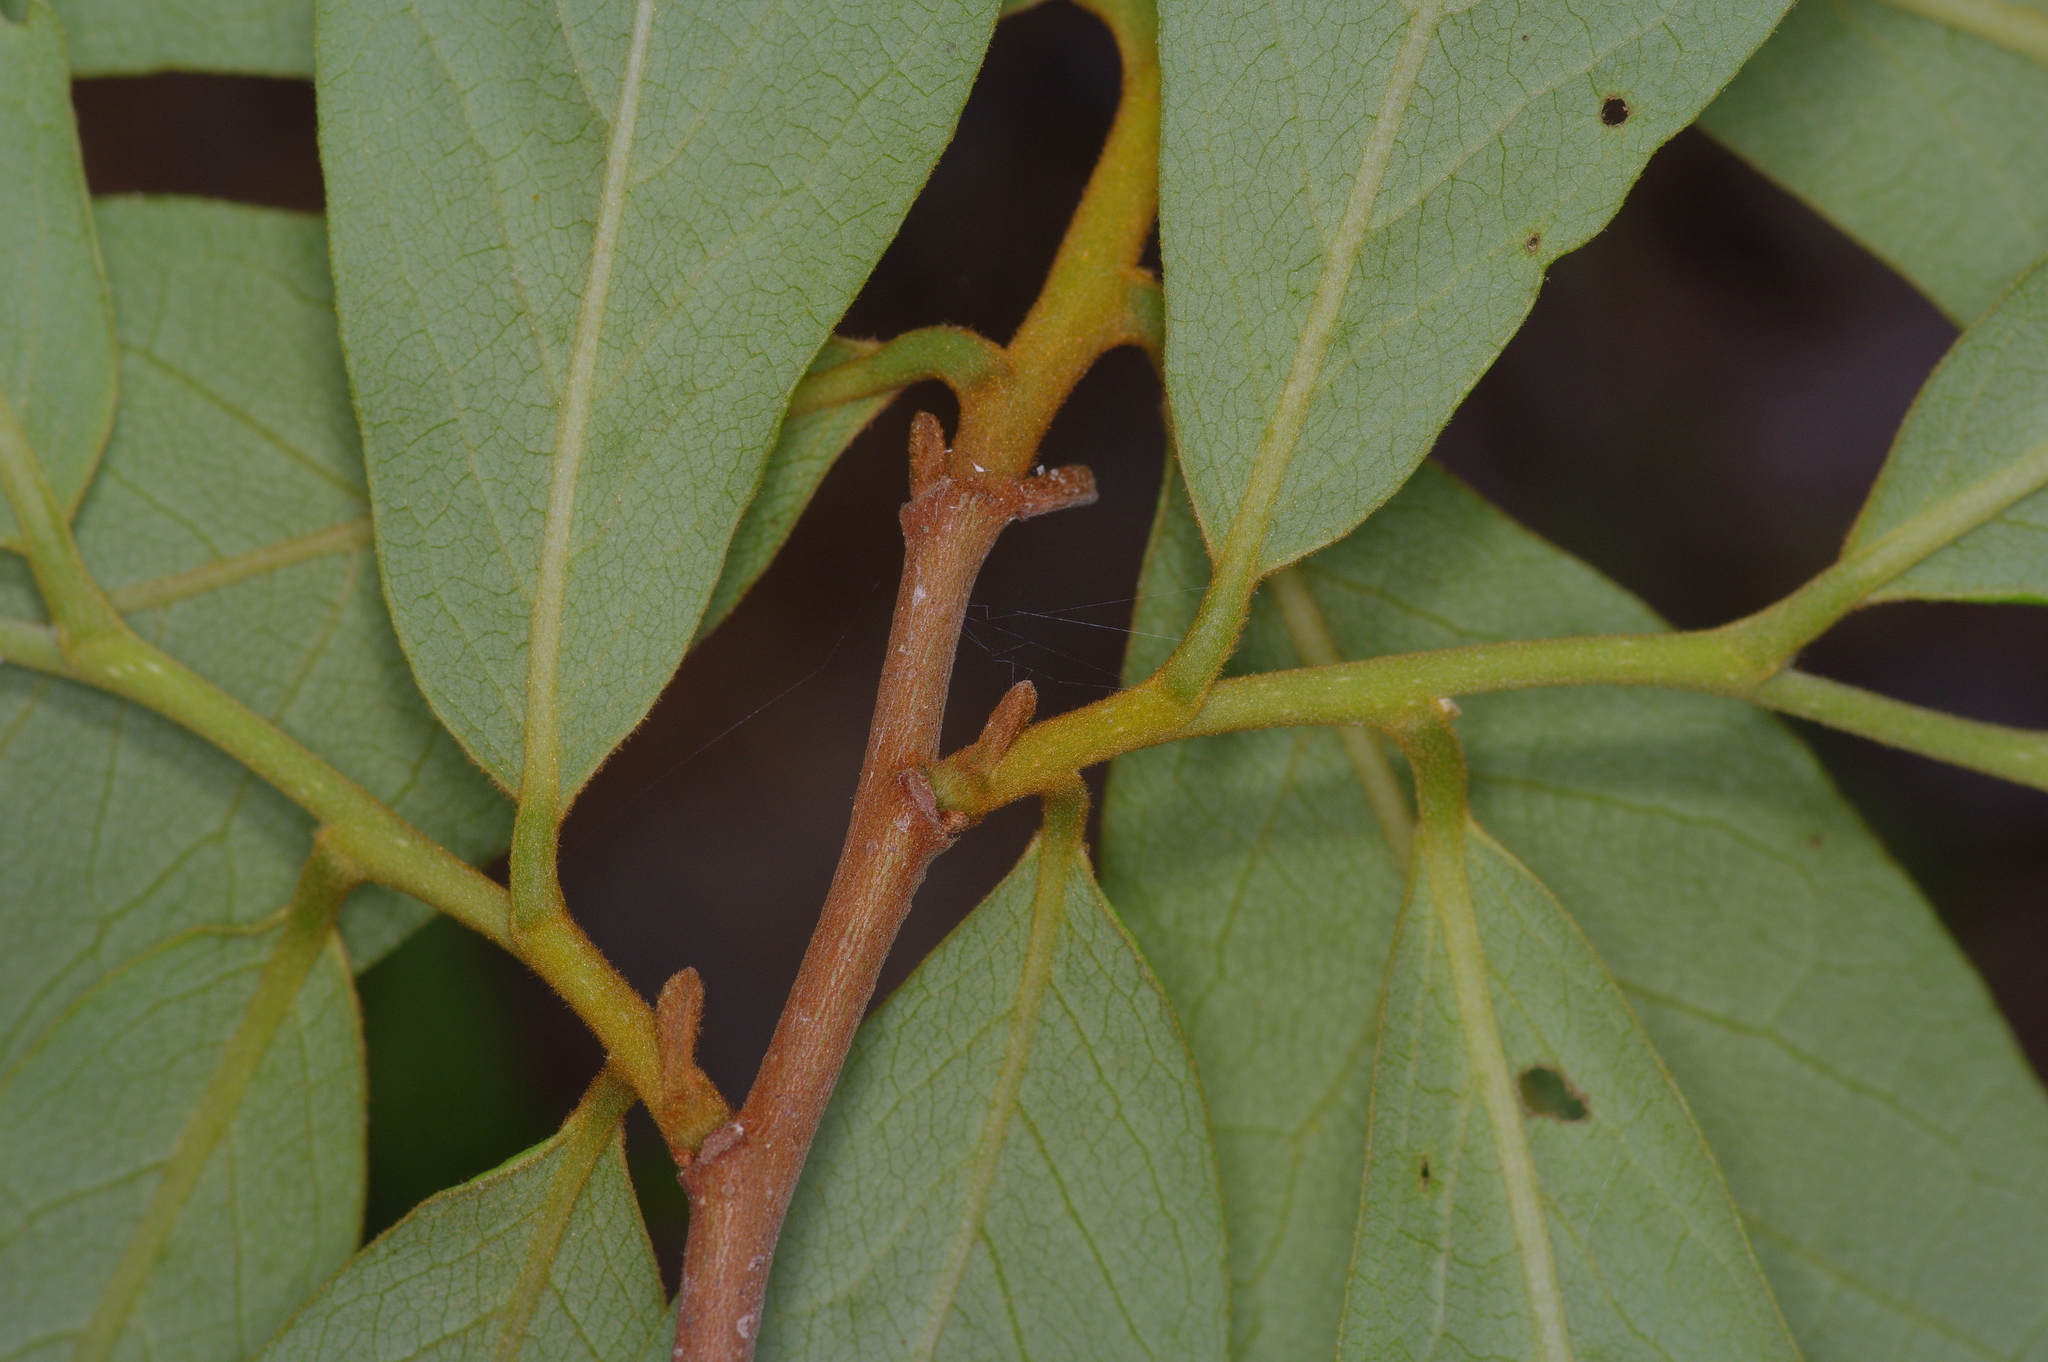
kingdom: Plantae
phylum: Tracheophyta
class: Magnoliopsida
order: Magnoliales
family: Annonaceae
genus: Asimina
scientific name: Asimina parviflora
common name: Dwarf pawpaw
